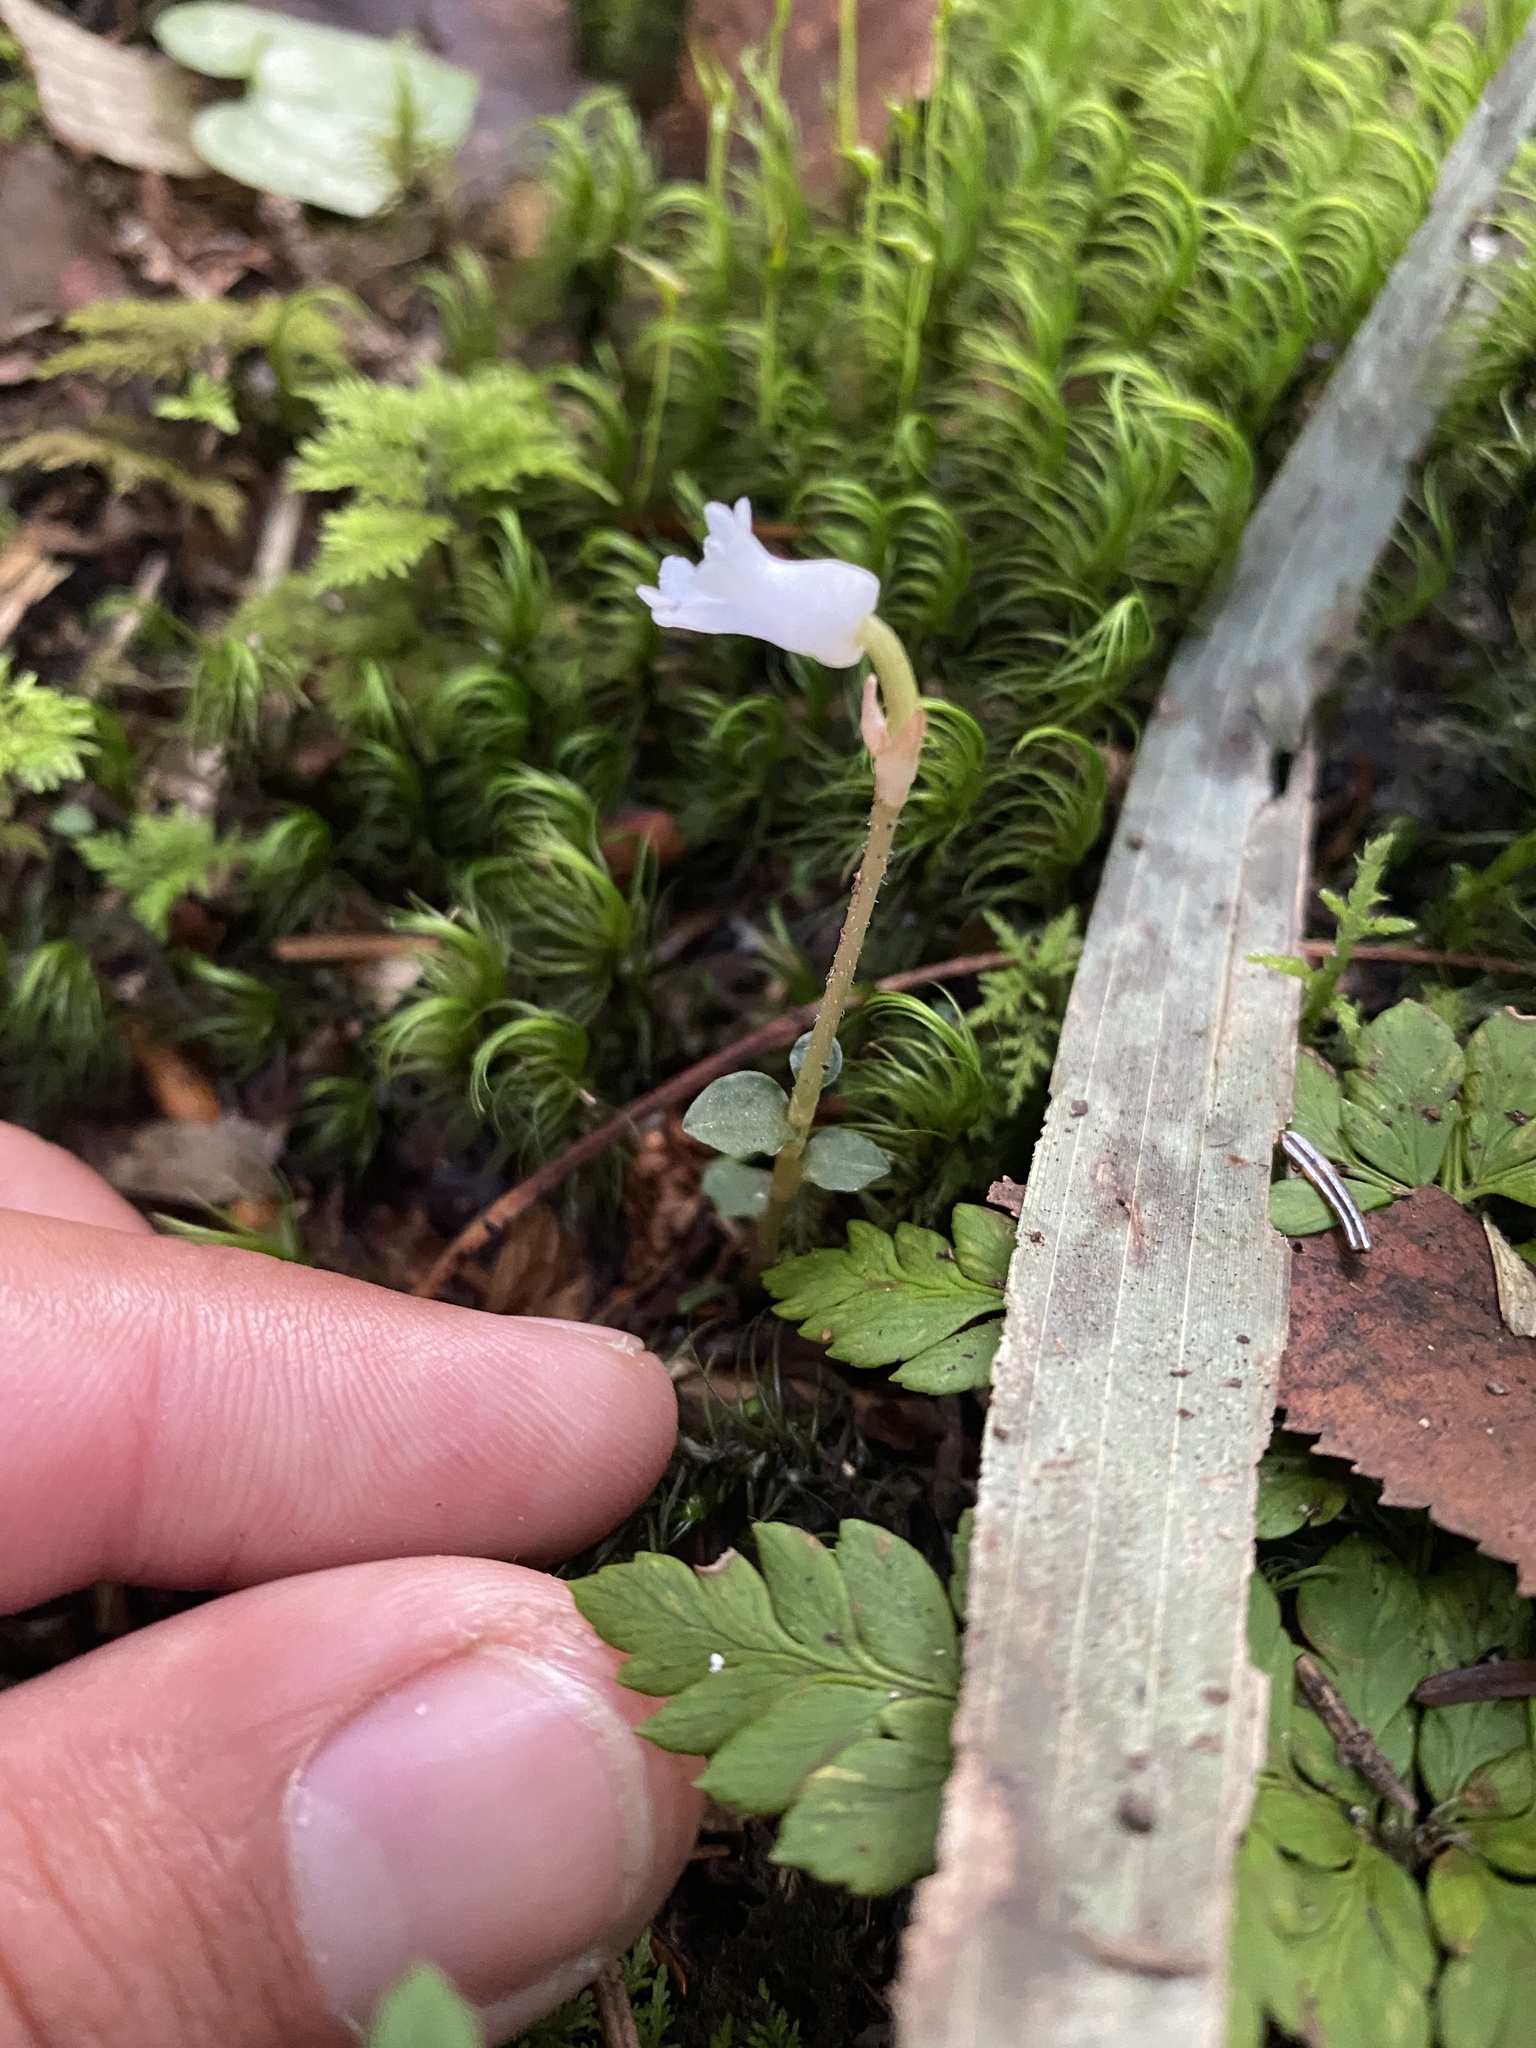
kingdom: Plantae
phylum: Tracheophyta
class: Liliopsida
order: Asparagales
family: Orchidaceae
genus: Odontochilus
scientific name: Odontochilus japonicus
